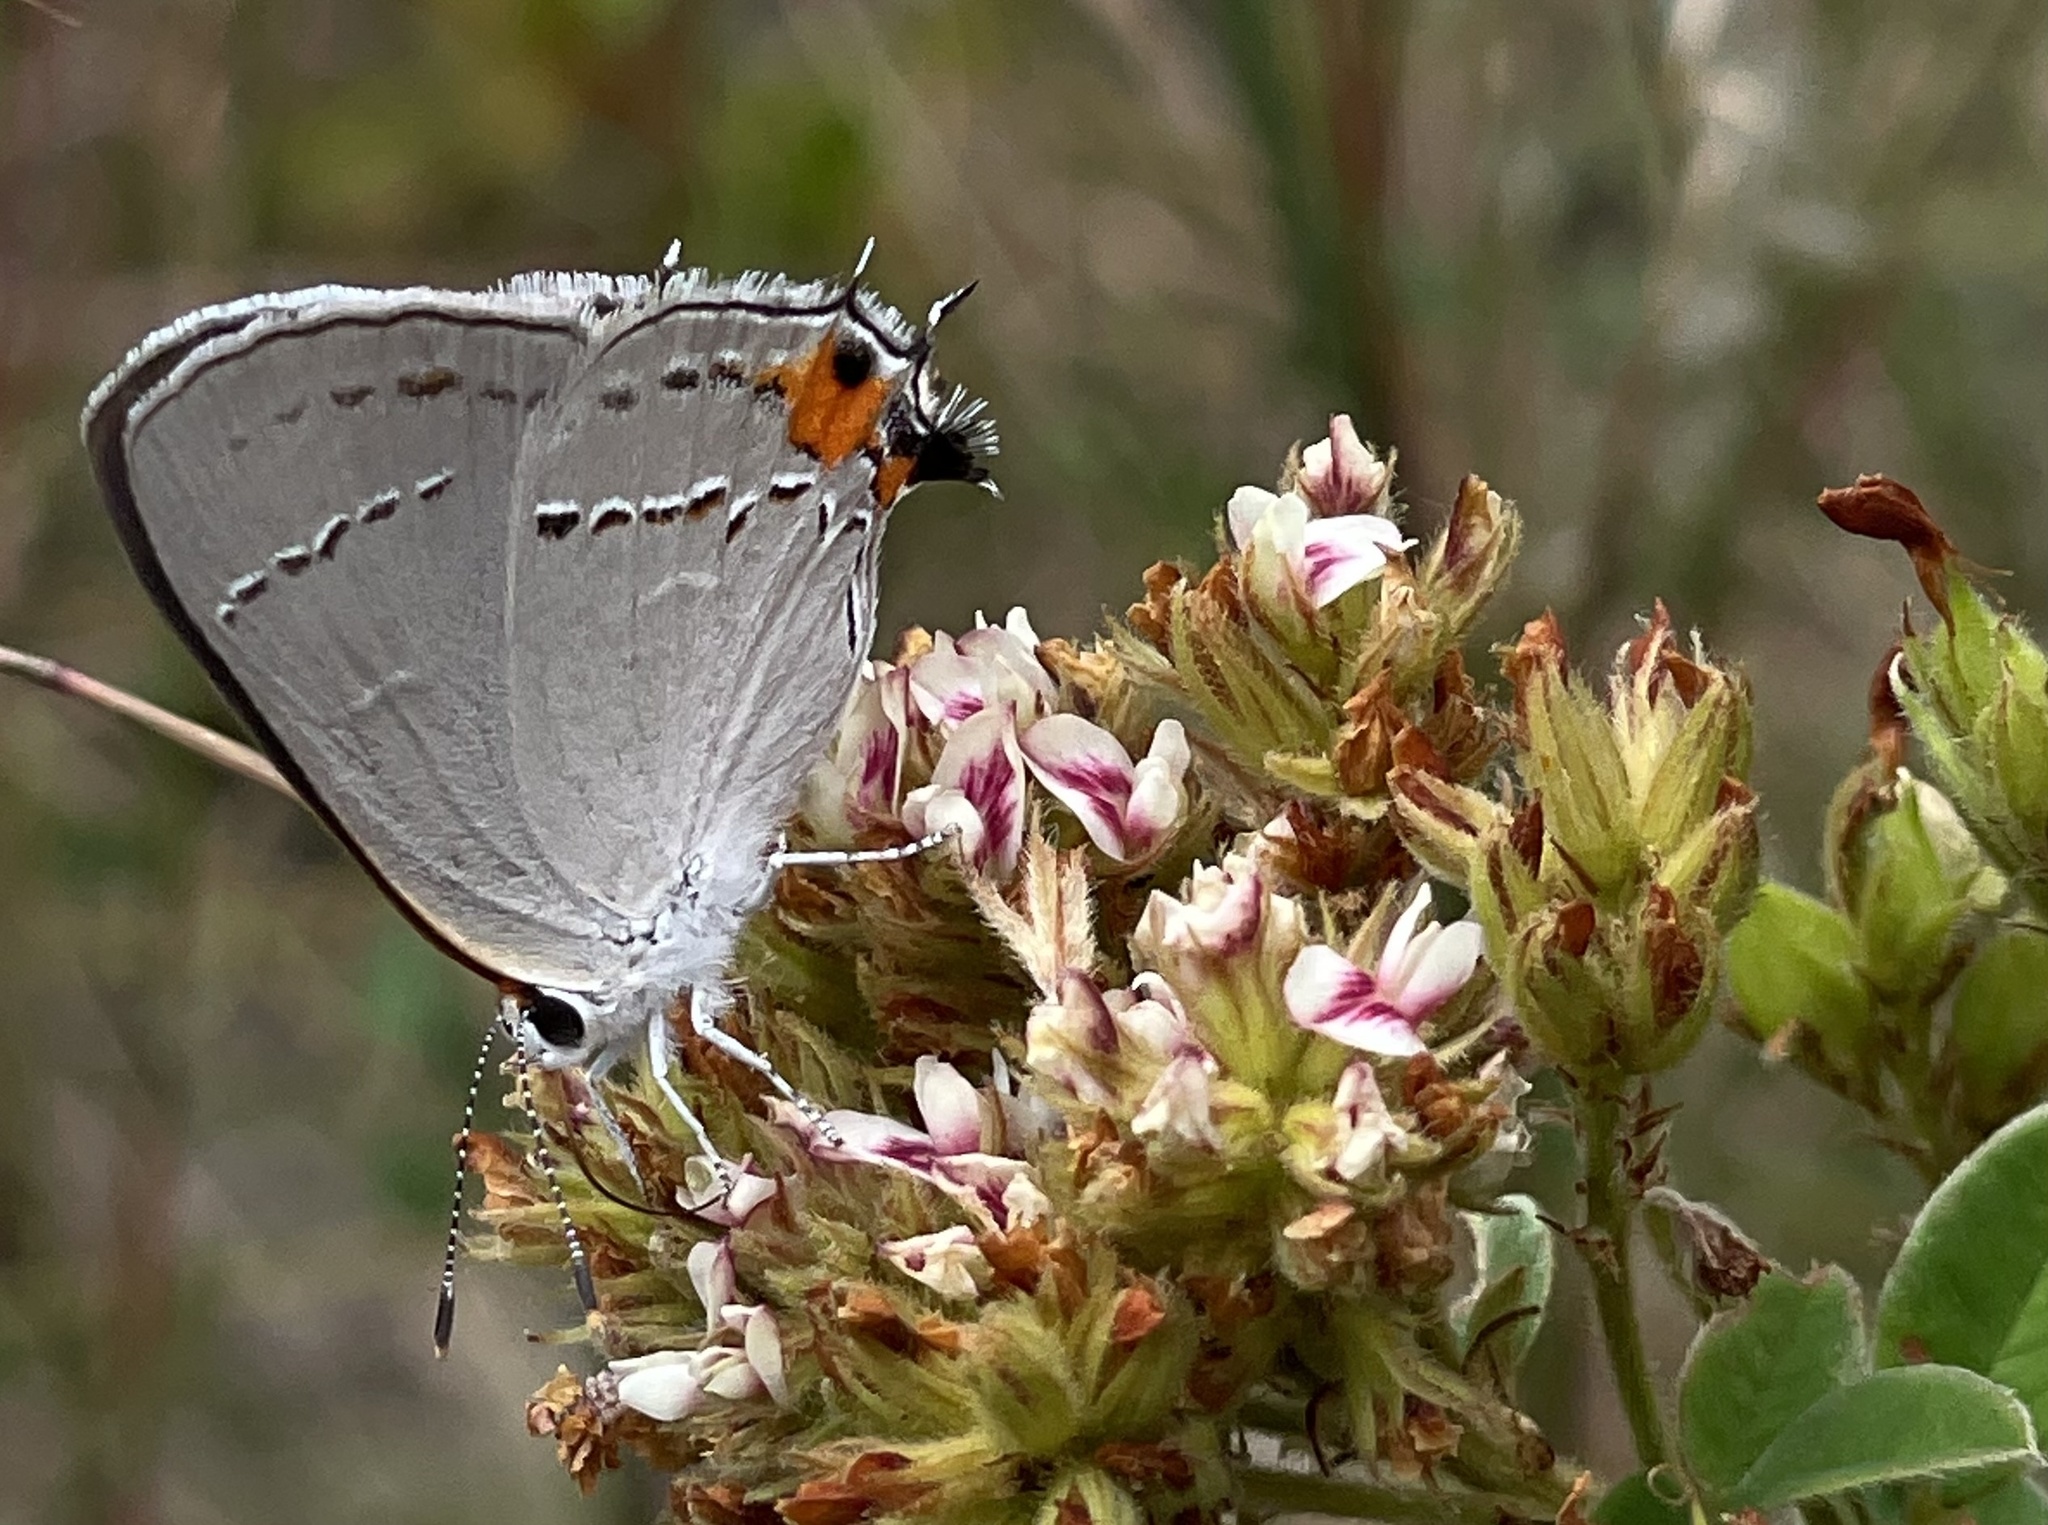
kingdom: Animalia
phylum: Arthropoda
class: Insecta
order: Lepidoptera
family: Lycaenidae
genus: Strymon
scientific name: Strymon melinus
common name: Gray hairstreak
